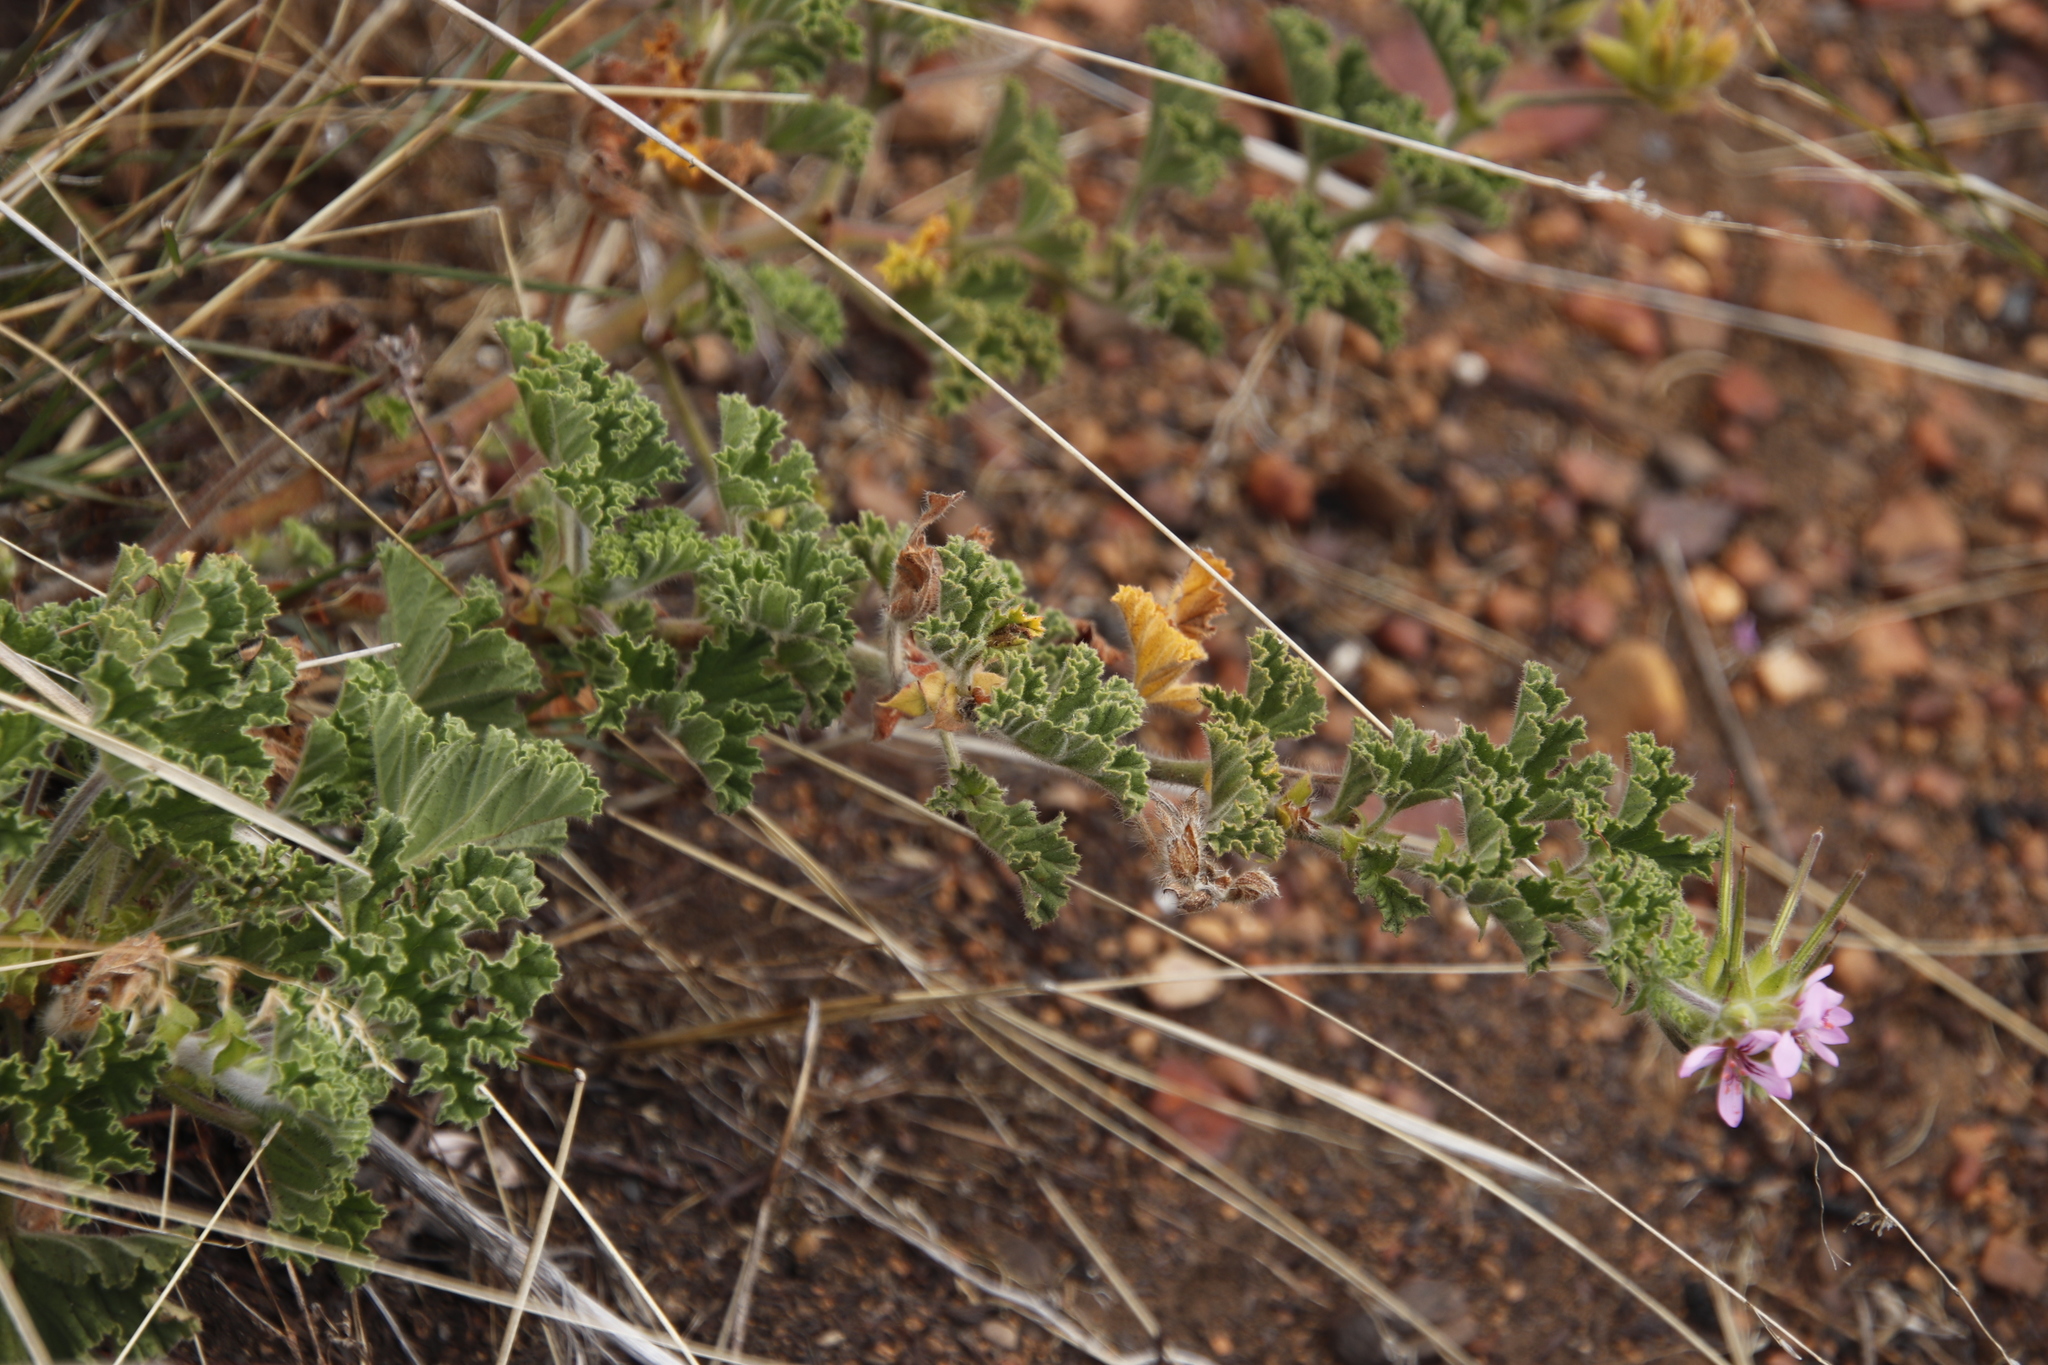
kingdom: Plantae
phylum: Tracheophyta
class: Magnoliopsida
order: Geraniales
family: Geraniaceae
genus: Pelargonium
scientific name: Pelargonium capitatum
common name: Rose scented geranium
